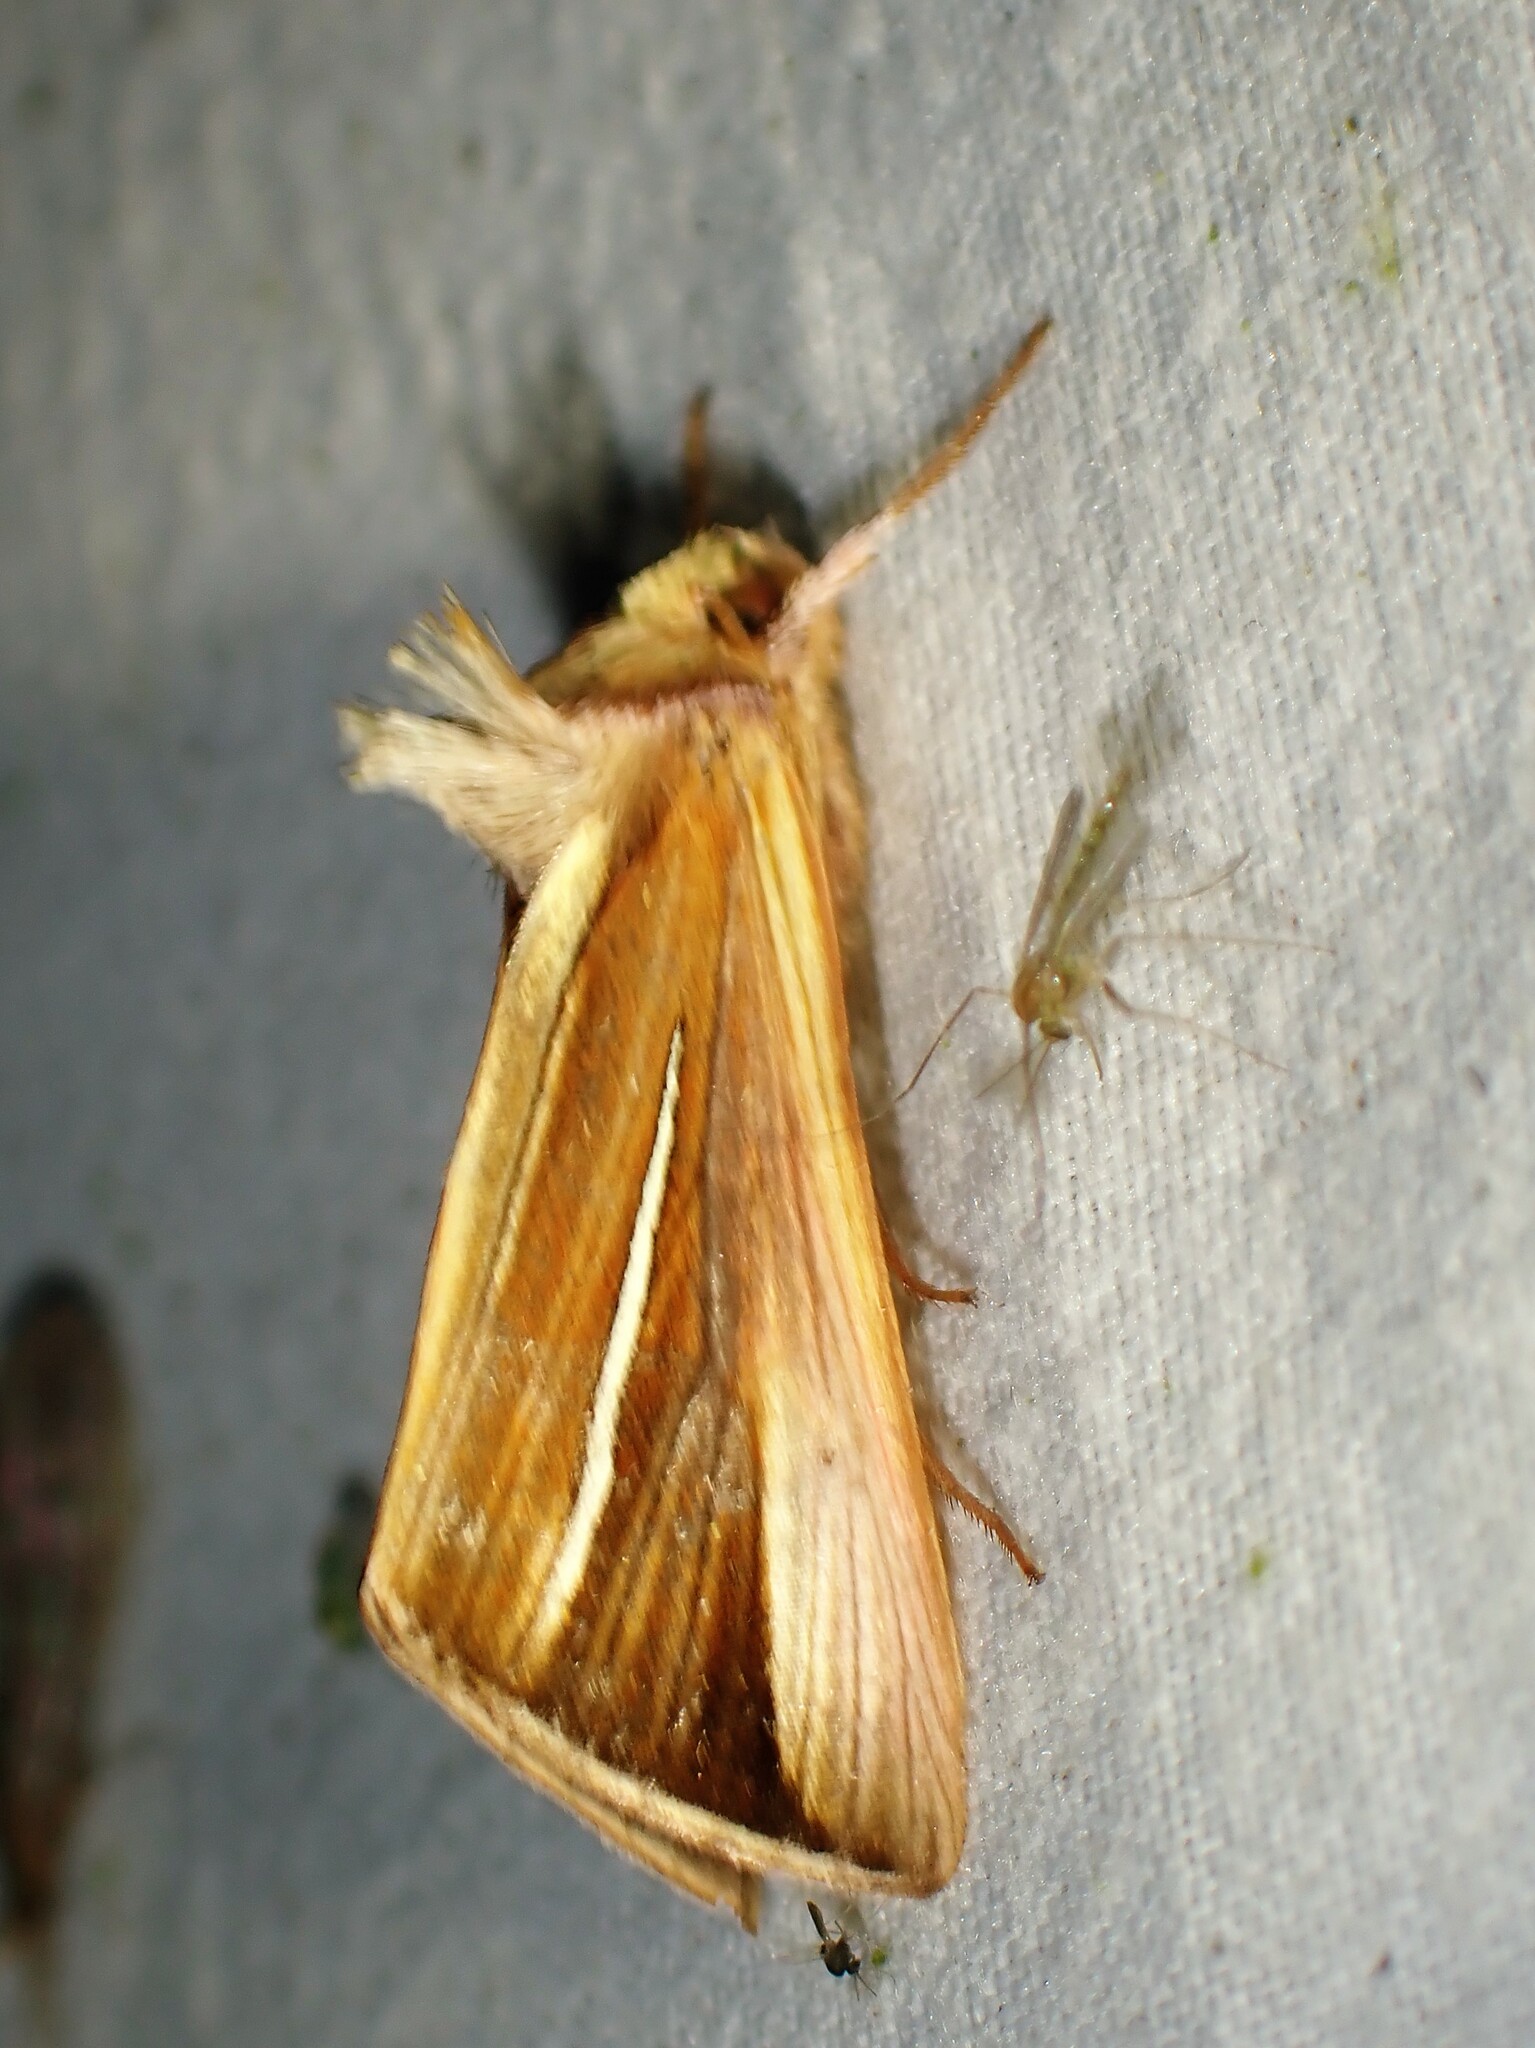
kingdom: Animalia
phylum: Arthropoda
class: Insecta
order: Lepidoptera
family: Noctuidae
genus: Plusia
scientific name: Plusia venusta
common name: White-streaked looper moth
